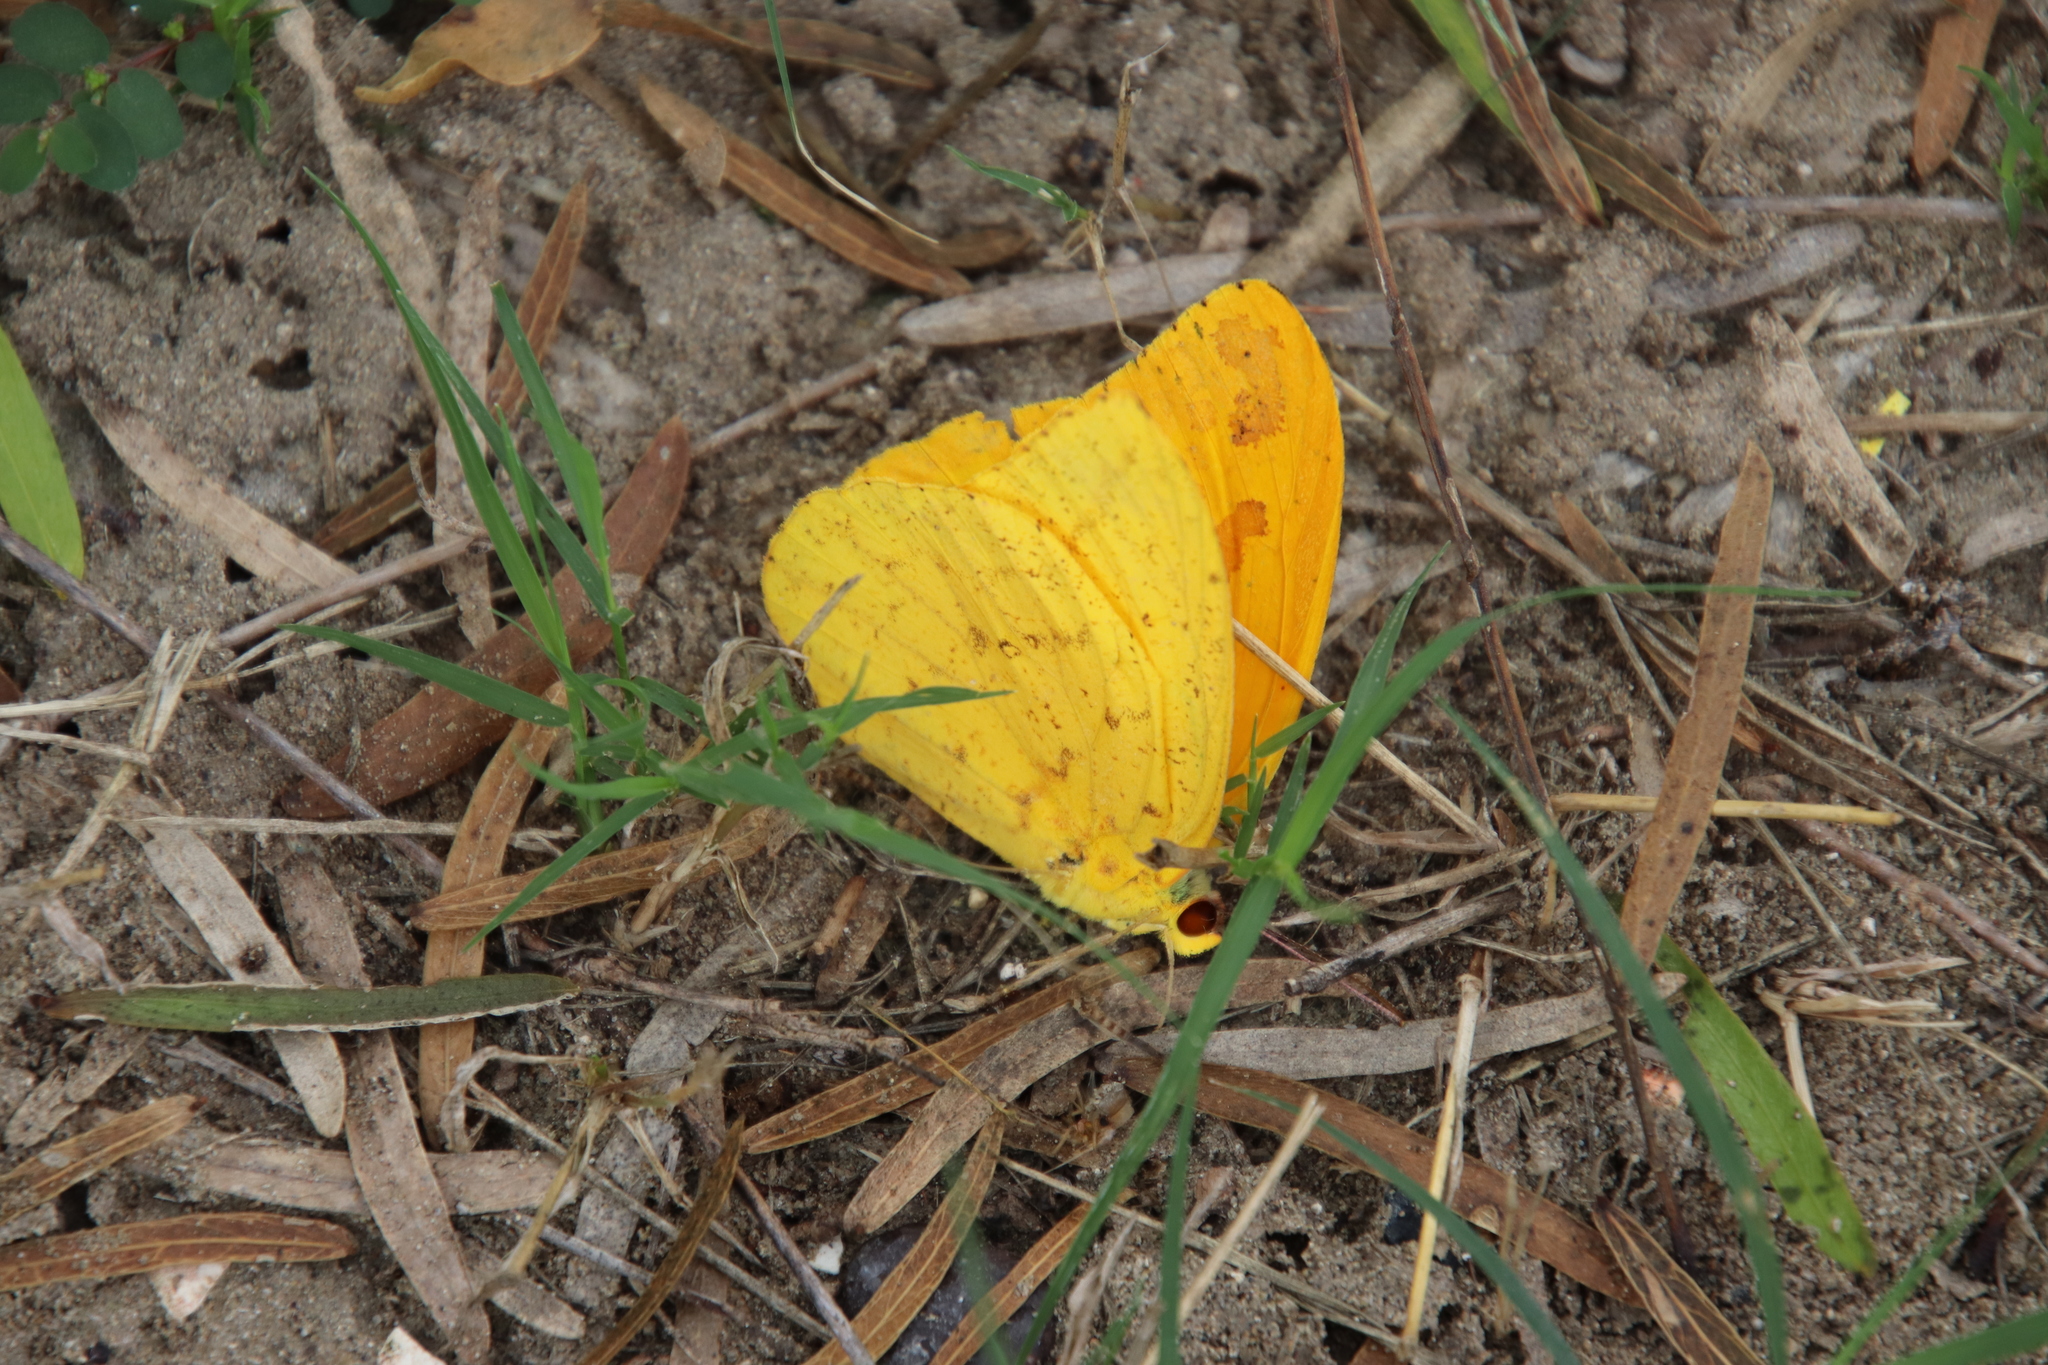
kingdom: Animalia
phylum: Arthropoda
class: Insecta
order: Lepidoptera
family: Pieridae
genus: Phoebis
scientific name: Phoebis agarithe
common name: Large orange sulphur
